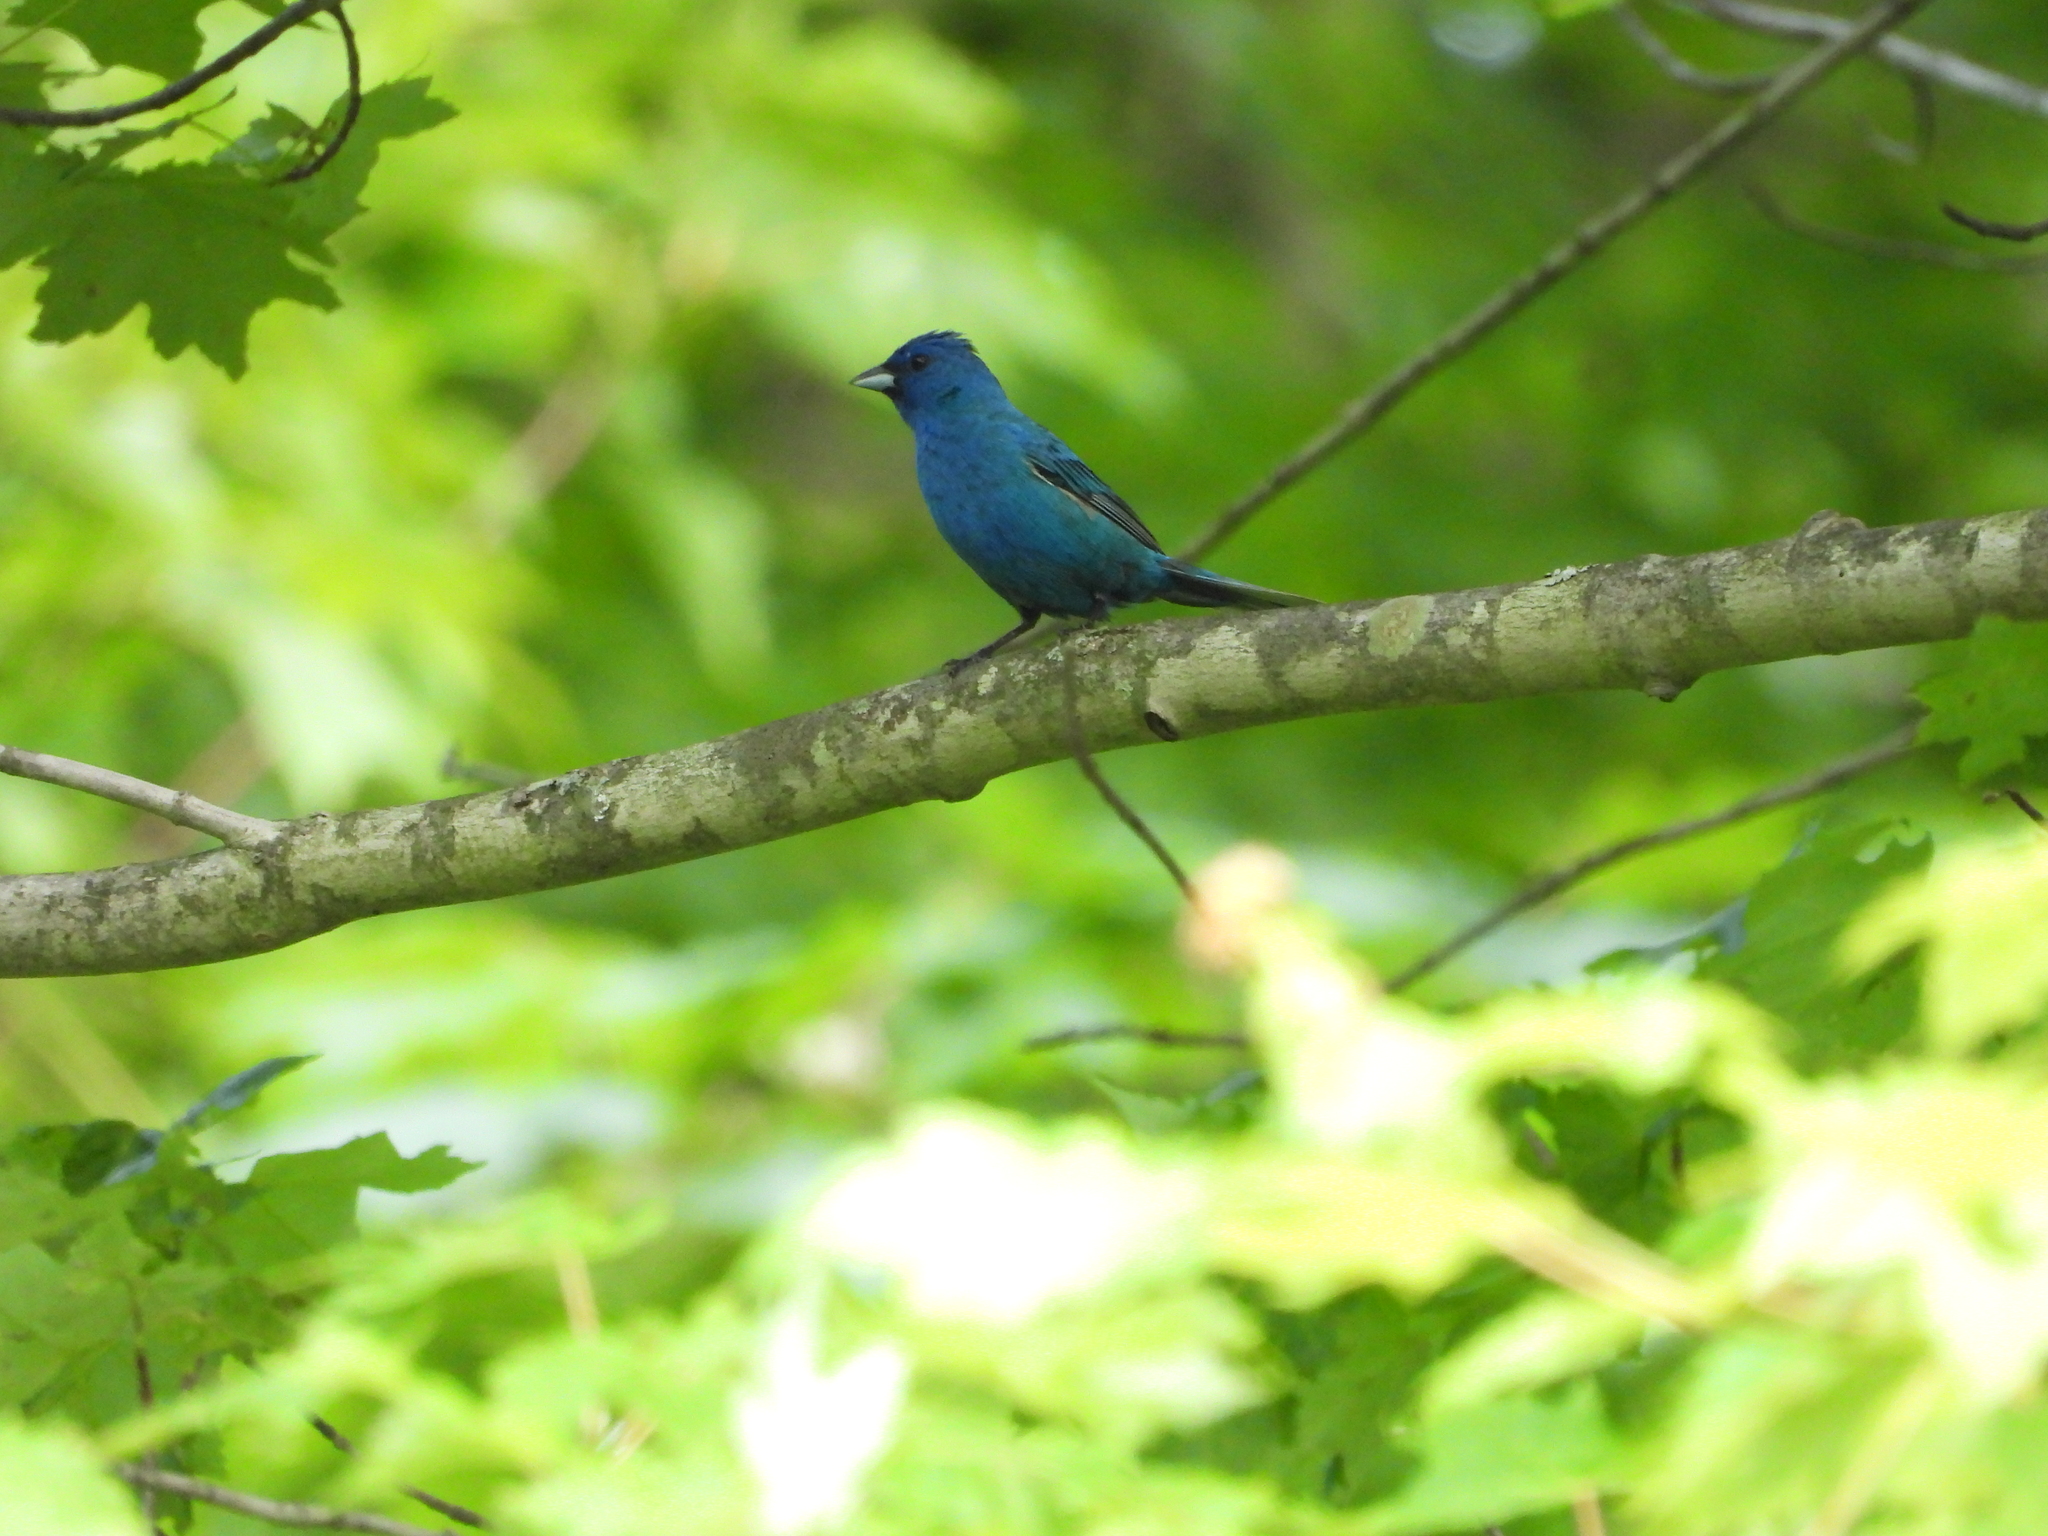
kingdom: Animalia
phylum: Chordata
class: Aves
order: Passeriformes
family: Cardinalidae
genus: Passerina
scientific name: Passerina cyanea
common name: Indigo bunting
